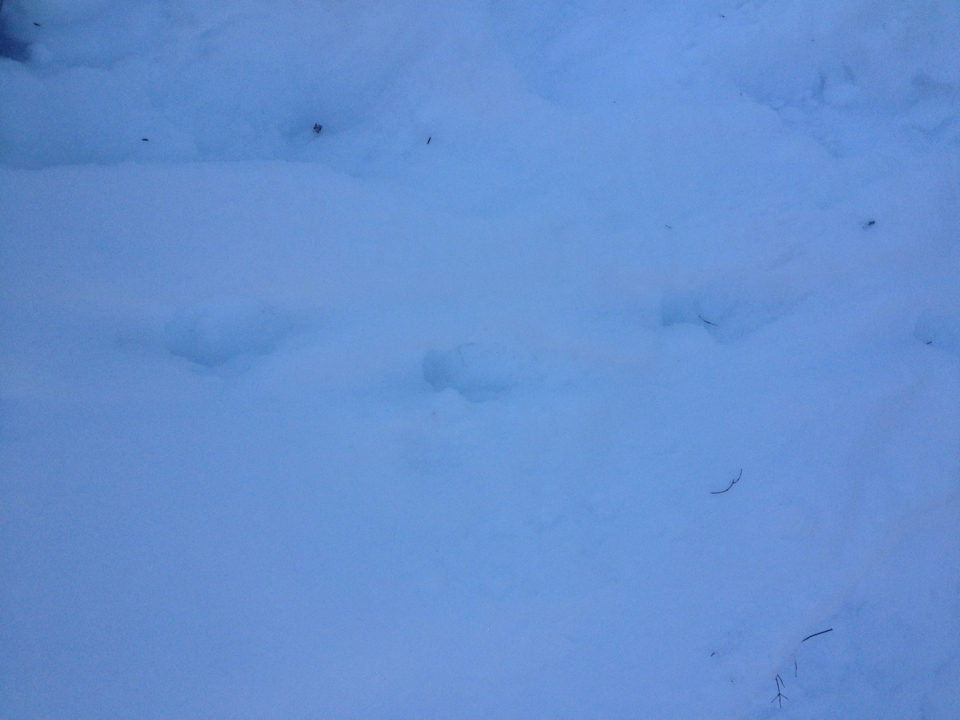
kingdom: Animalia
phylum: Chordata
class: Mammalia
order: Carnivora
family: Mustelidae
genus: Pekania
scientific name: Pekania pennanti
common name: Fisher
